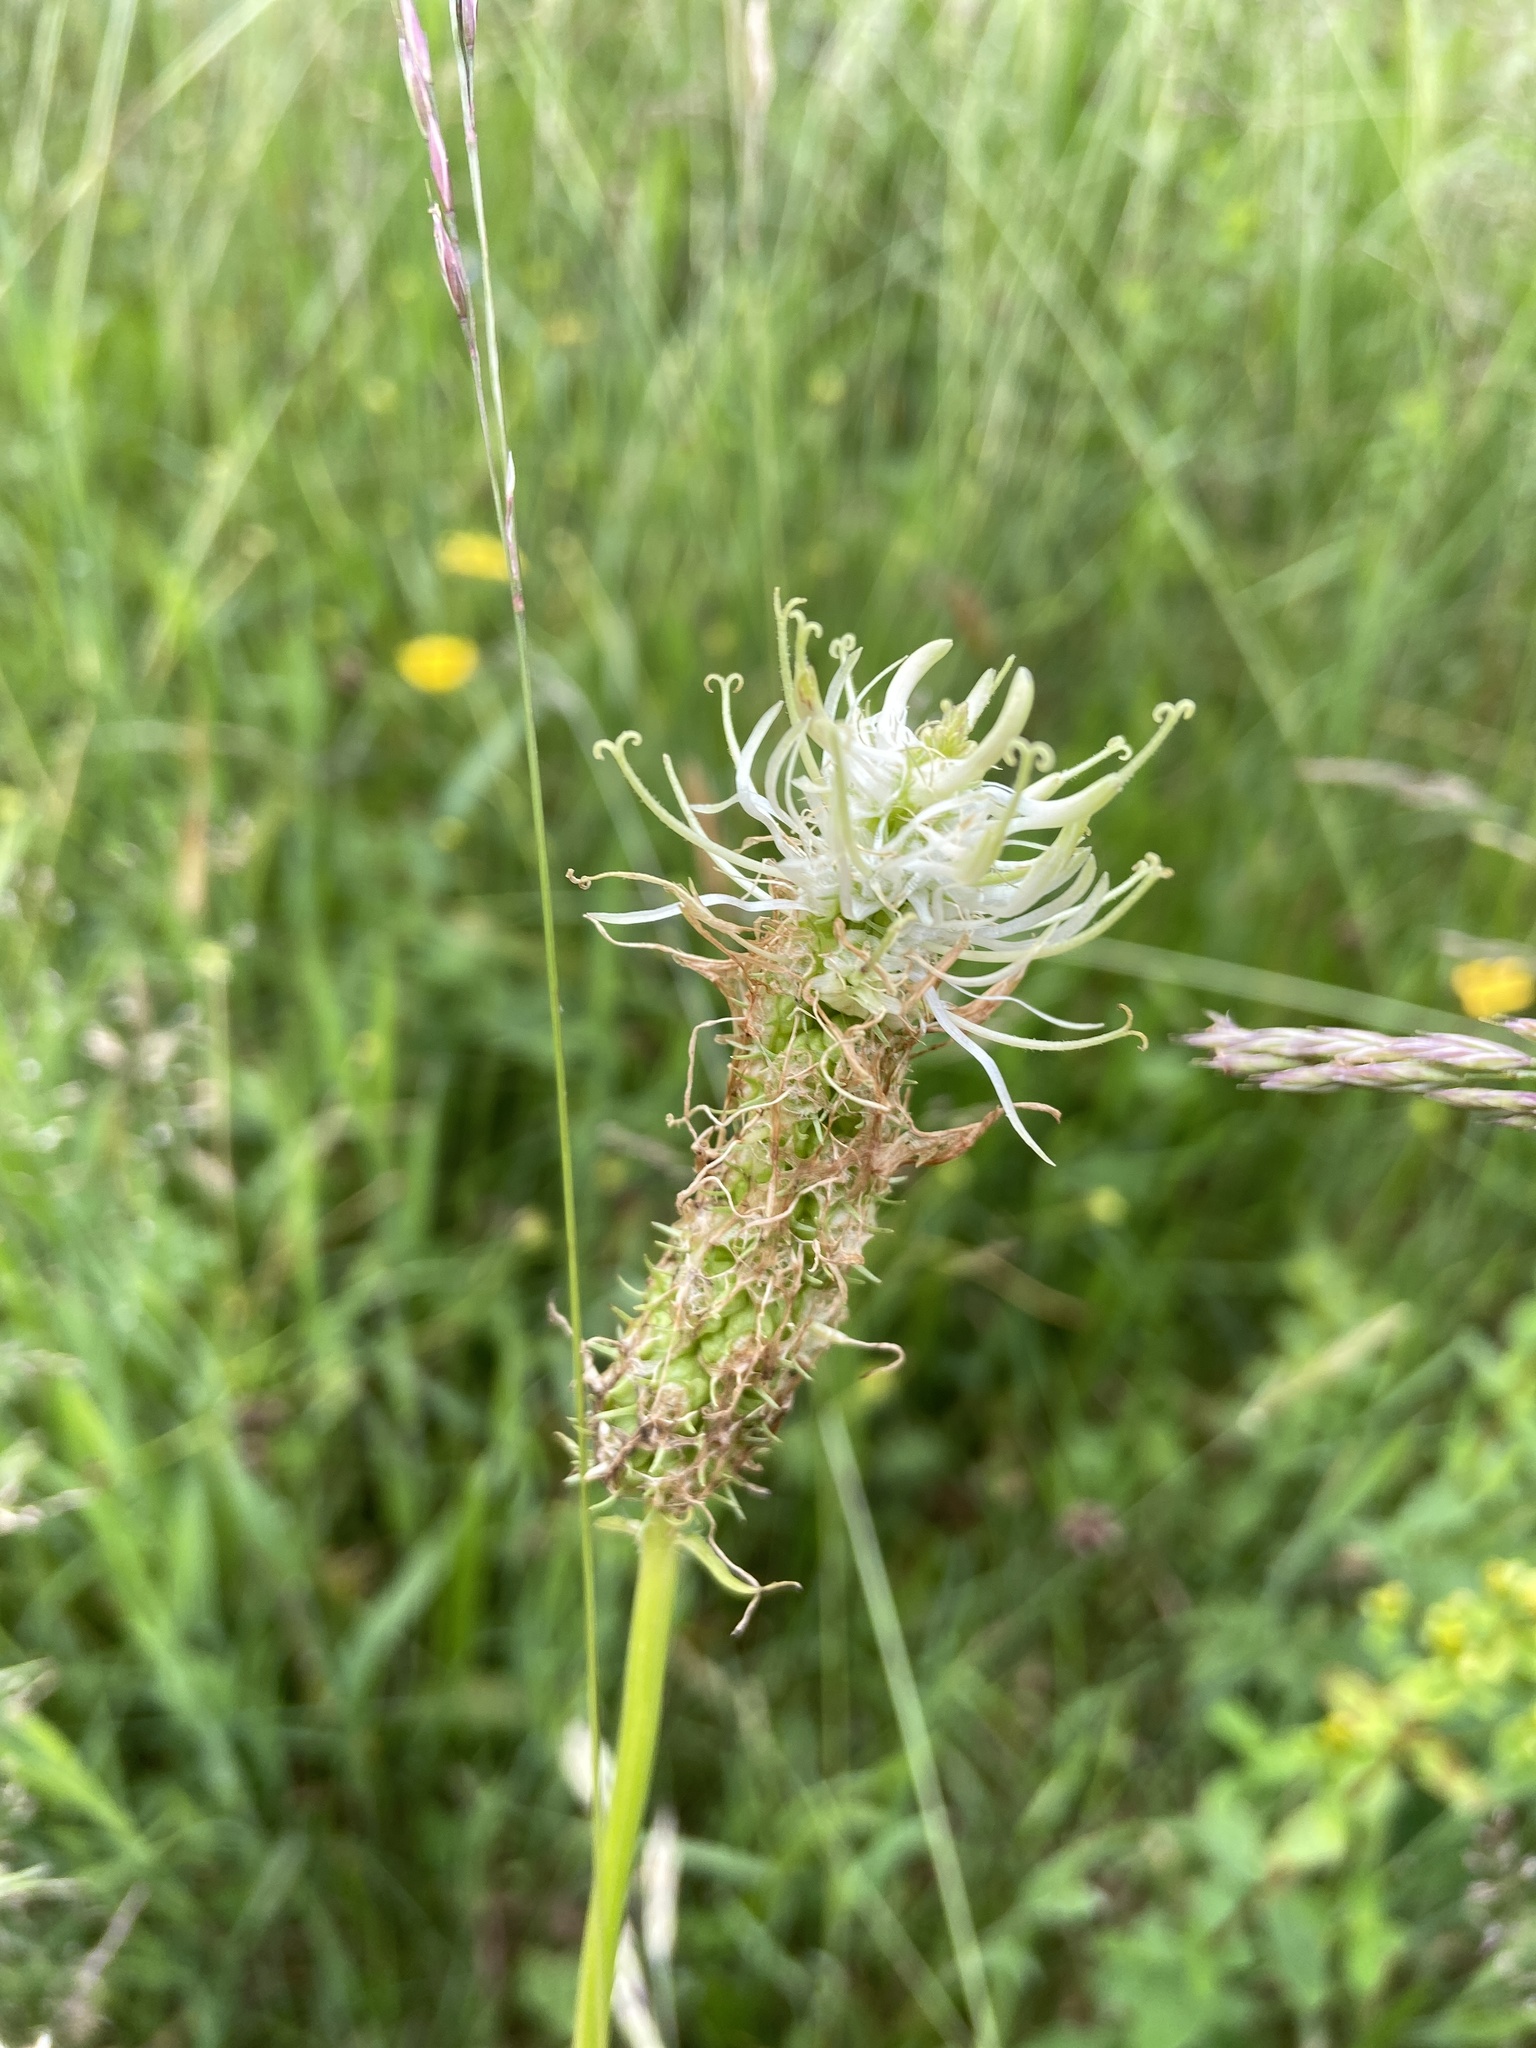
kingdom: Plantae
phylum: Tracheophyta
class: Magnoliopsida
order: Asterales
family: Campanulaceae
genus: Phyteuma
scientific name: Phyteuma spicatum
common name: Spiked rampion
